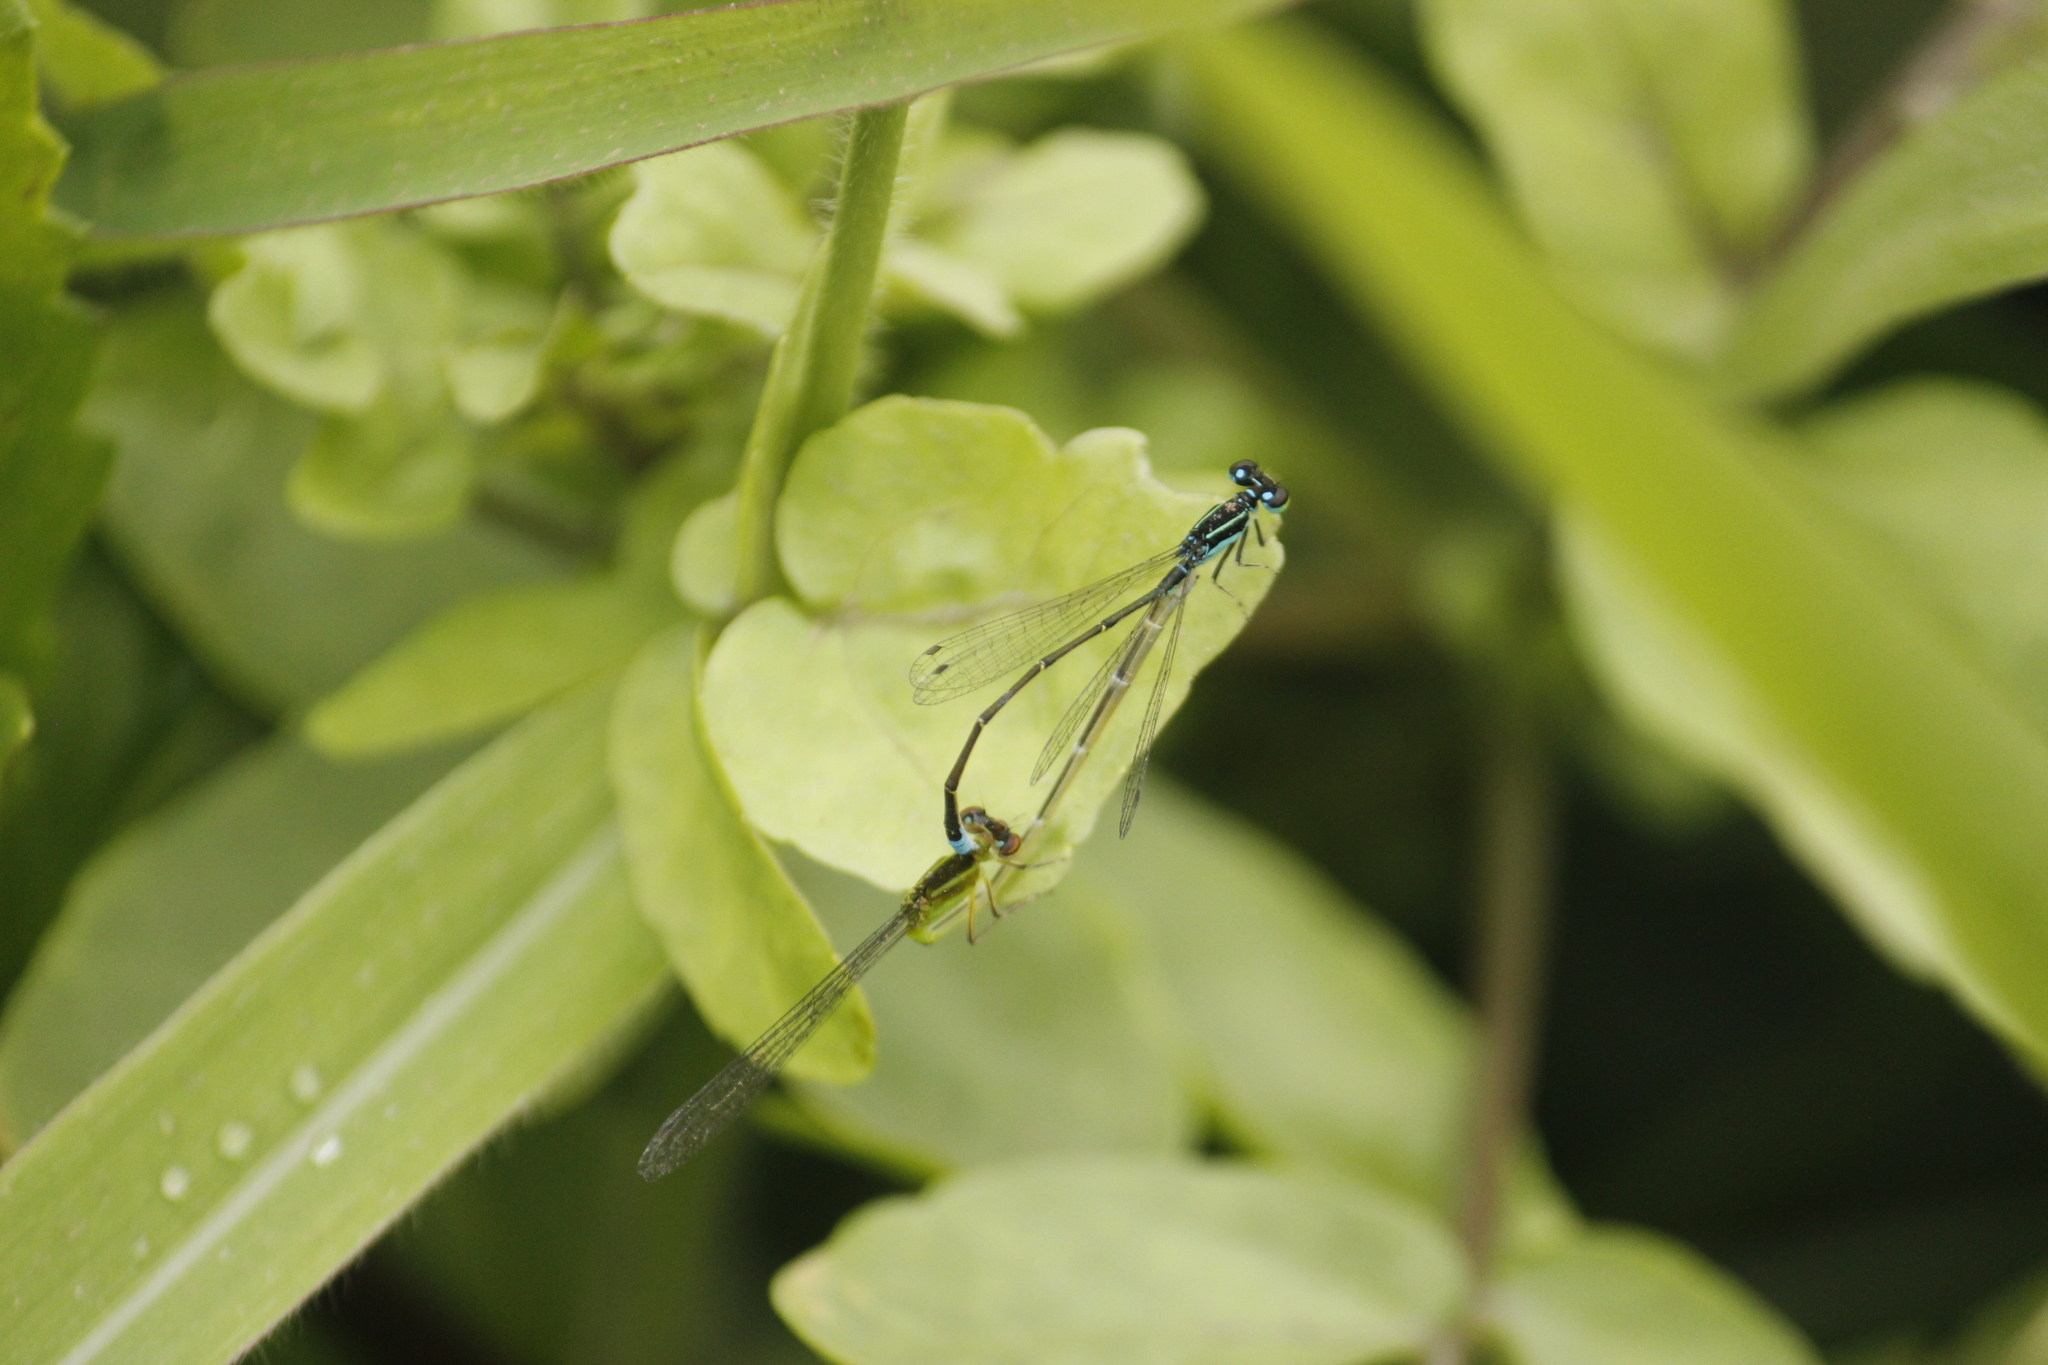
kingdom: Animalia
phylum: Arthropoda
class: Insecta
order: Odonata
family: Coenagrionidae
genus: Ischnura
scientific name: Ischnura capreolus
